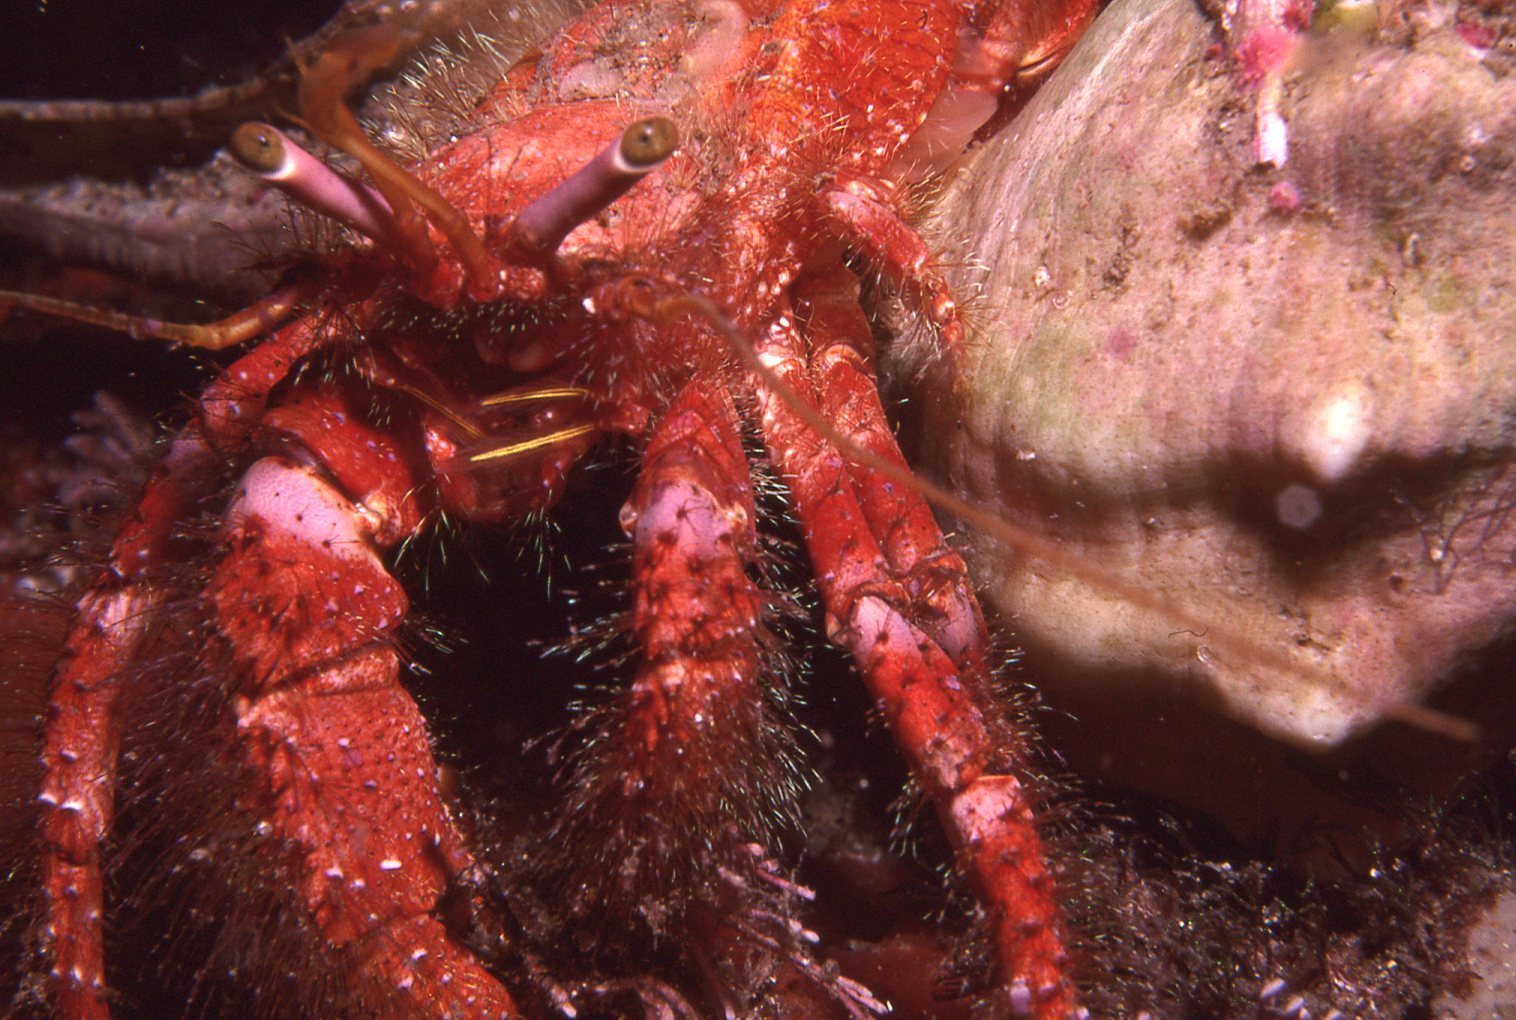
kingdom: Animalia
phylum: Arthropoda
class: Malacostraca
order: Decapoda
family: Diogenidae
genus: Dardanus
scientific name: Dardanus crassimanus
